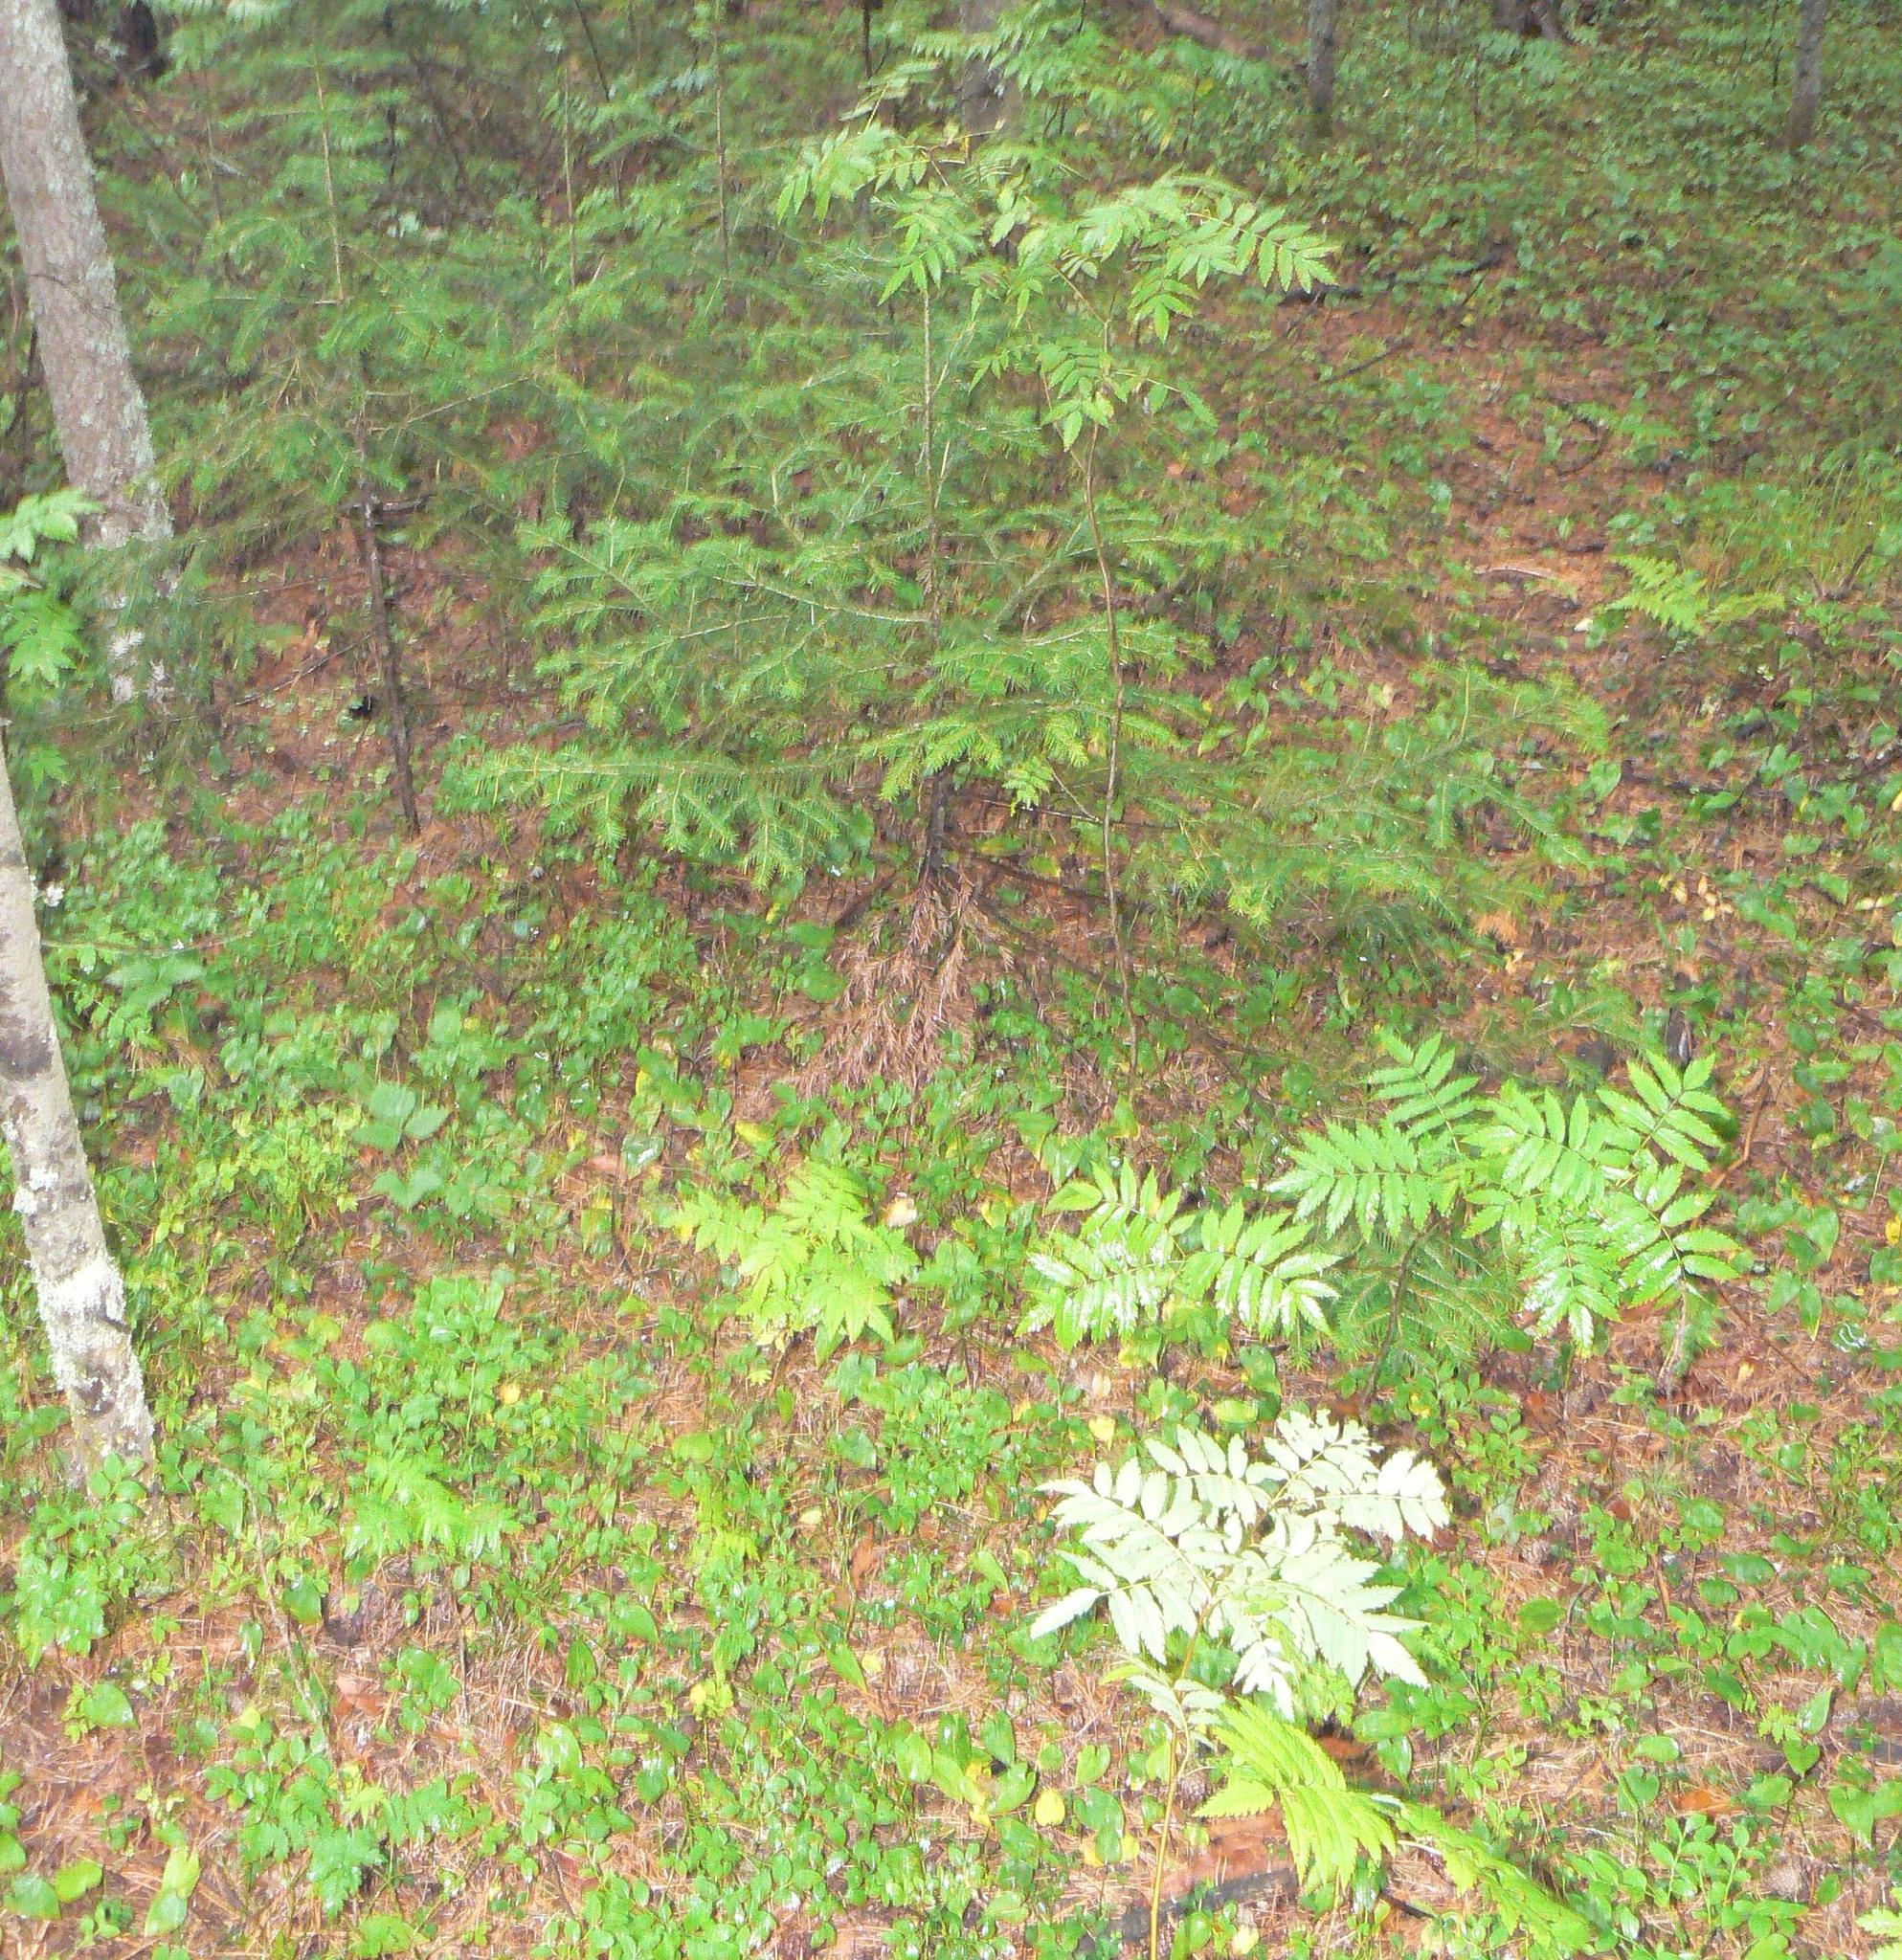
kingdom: Plantae
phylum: Tracheophyta
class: Magnoliopsida
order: Rosales
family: Rosaceae
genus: Sorbus
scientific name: Sorbus aucuparia
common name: Rowan
